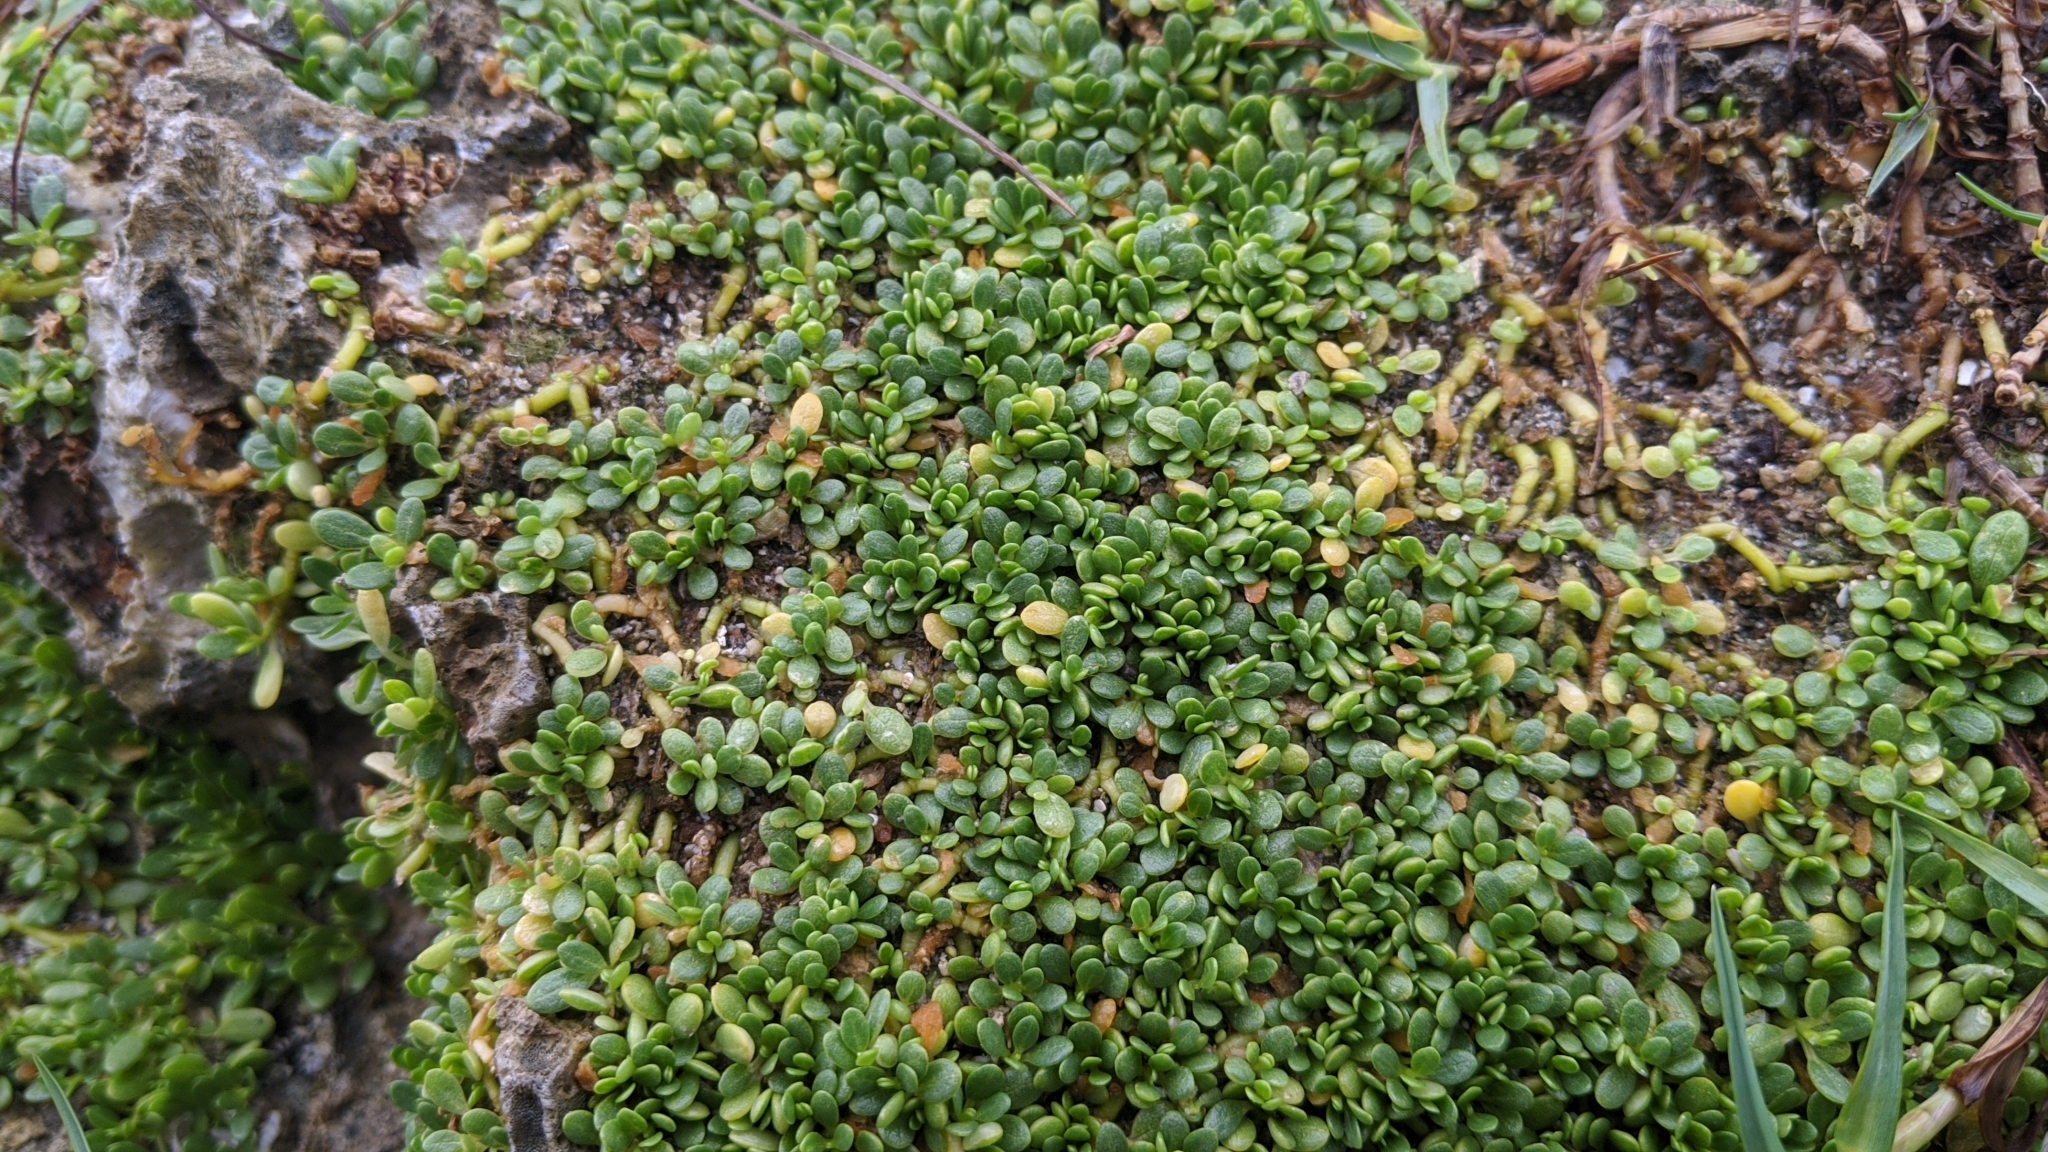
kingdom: Plantae
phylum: Tracheophyta
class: Magnoliopsida
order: Caryophyllales
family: Amaranthaceae
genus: Gomphrena
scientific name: Gomphrena wrightii
